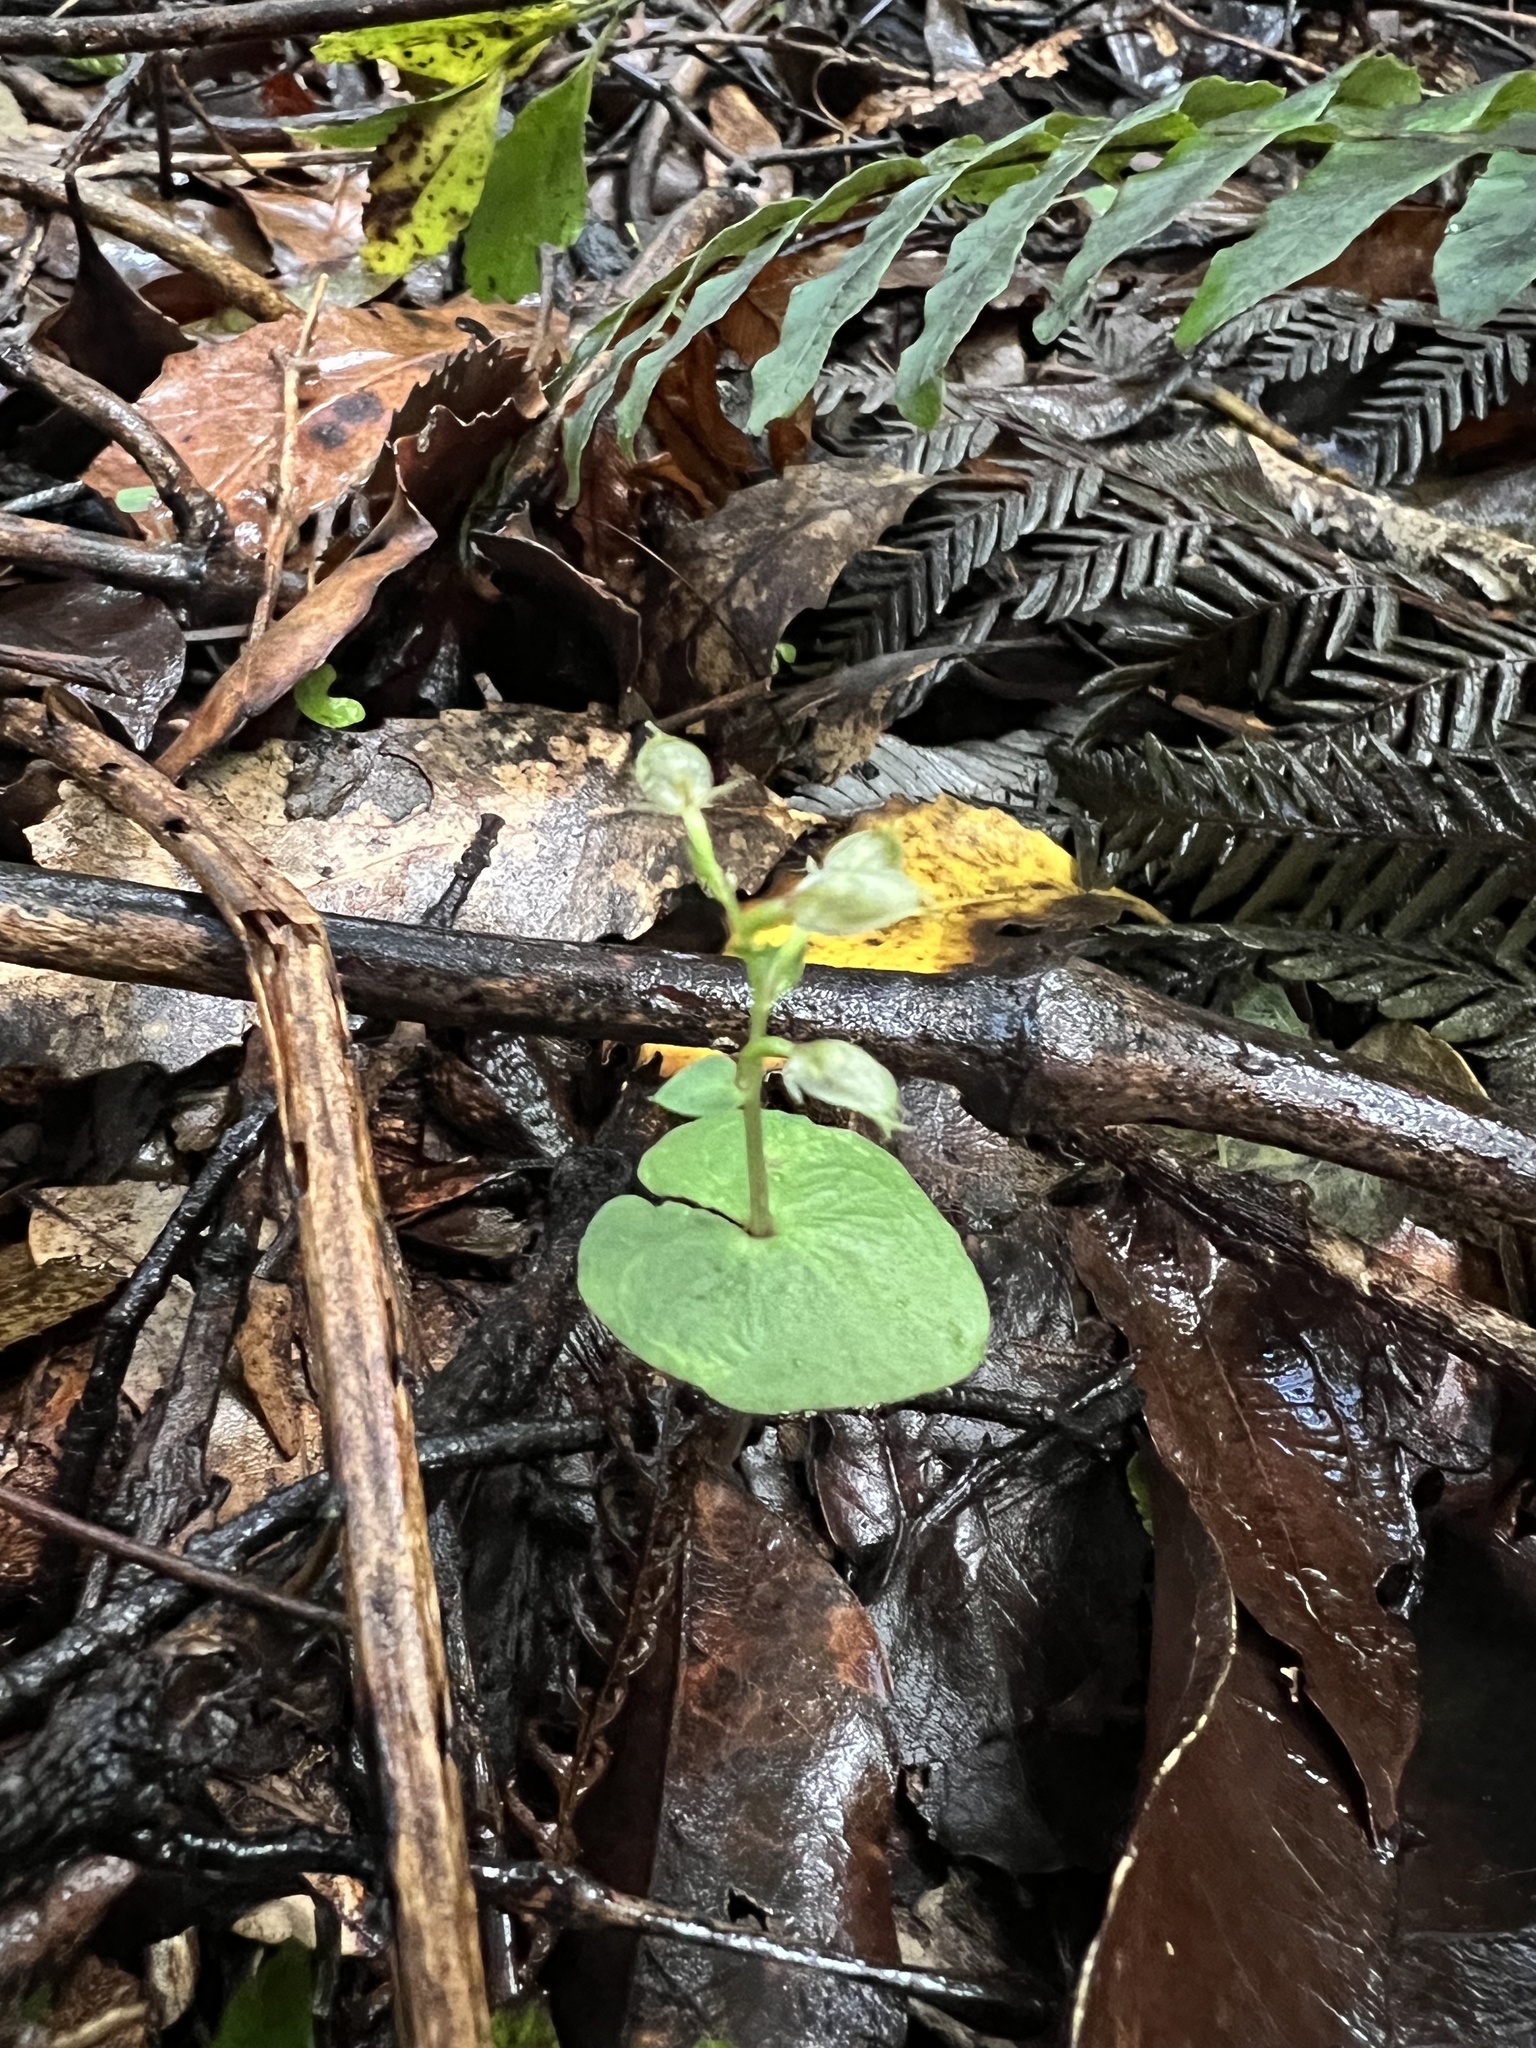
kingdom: Plantae
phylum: Tracheophyta
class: Liliopsida
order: Asparagales
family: Orchidaceae
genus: Acianthus
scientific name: Acianthus sinclairii
